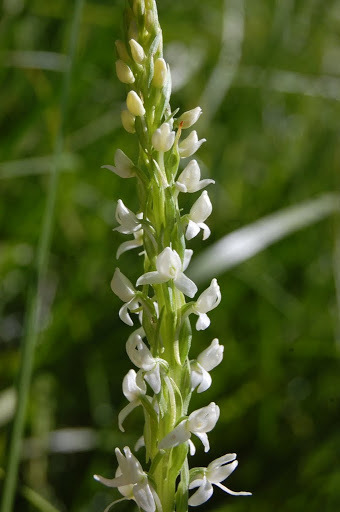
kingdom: Plantae
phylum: Tracheophyta
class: Liliopsida
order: Asparagales
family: Orchidaceae
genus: Platanthera
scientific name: Platanthera dilatata
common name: Bog candles
